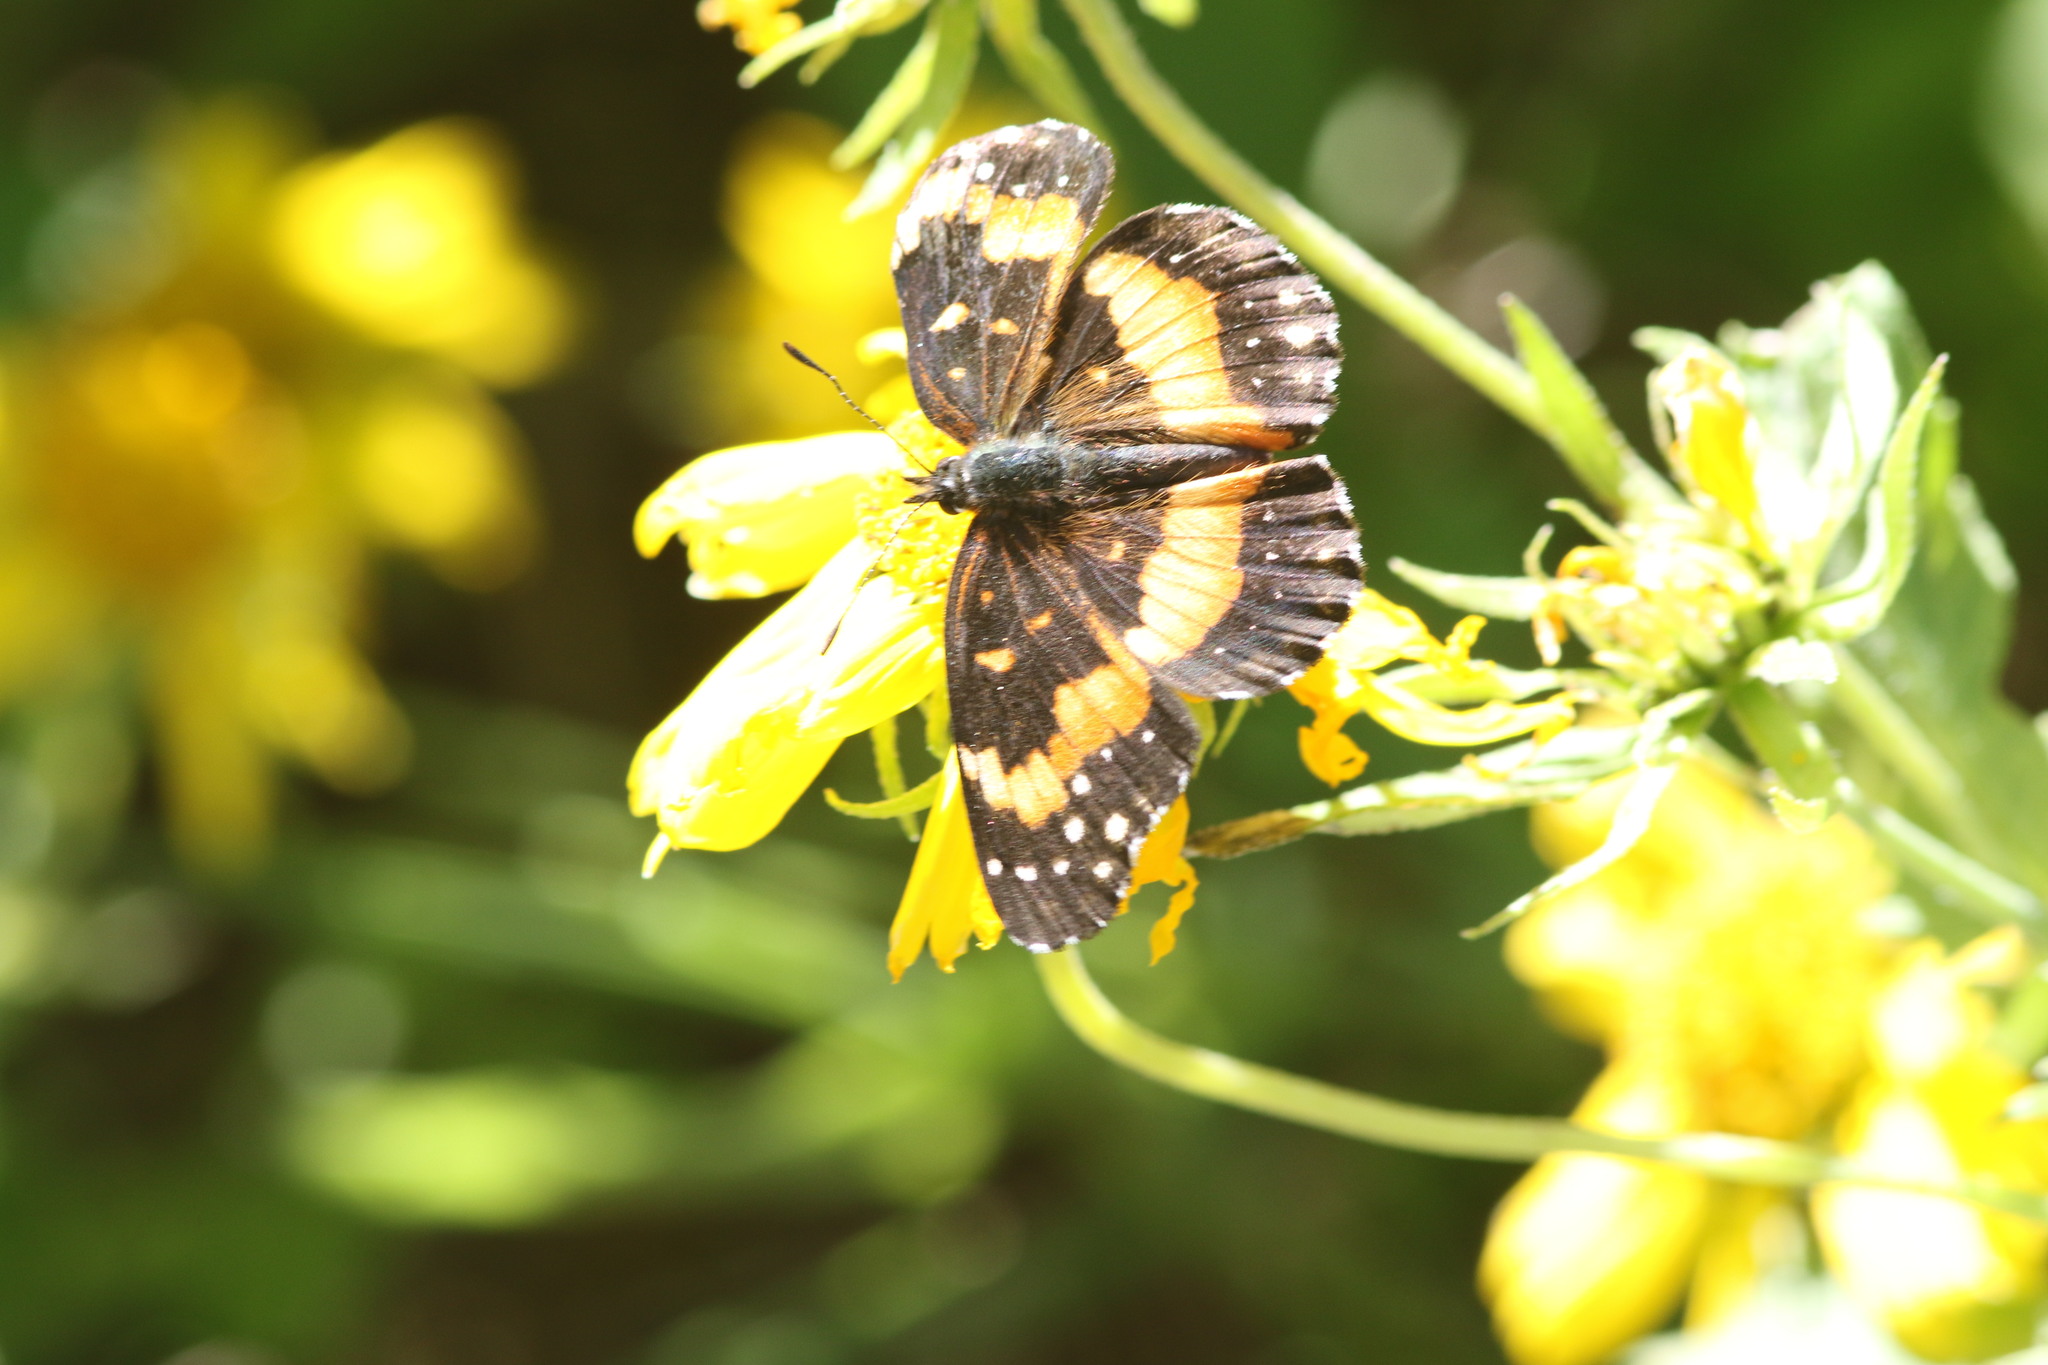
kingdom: Animalia
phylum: Arthropoda
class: Insecta
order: Lepidoptera
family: Nymphalidae
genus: Chlosyne
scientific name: Chlosyne lacinia
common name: Bordered patch
